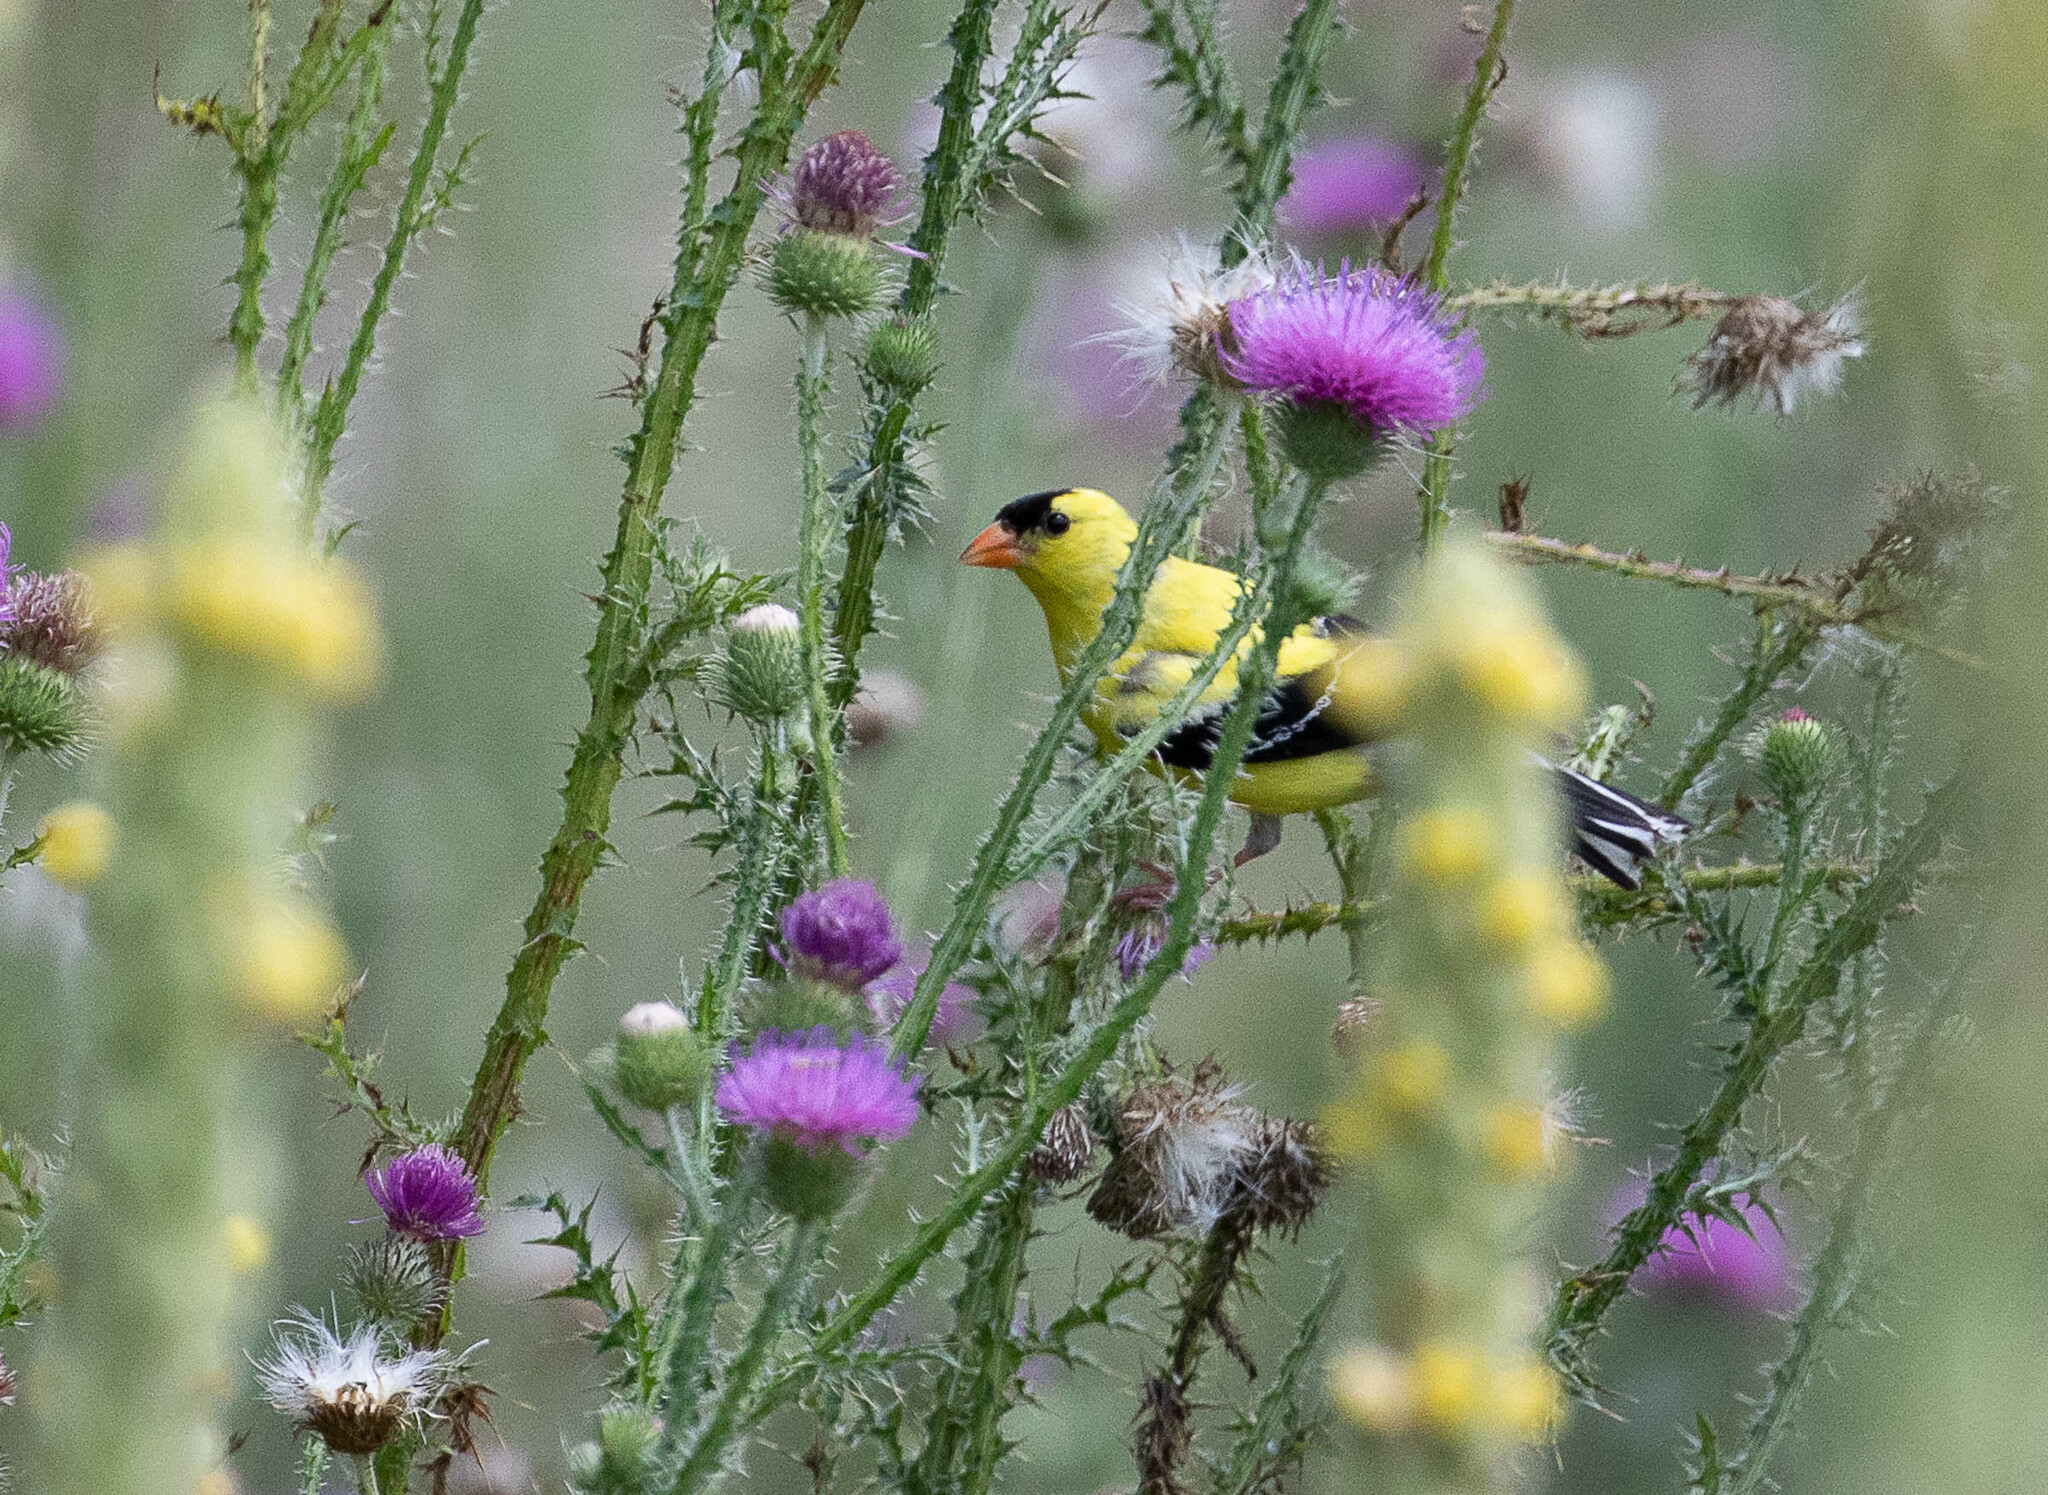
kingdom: Animalia
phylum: Chordata
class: Aves
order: Passeriformes
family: Fringillidae
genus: Spinus
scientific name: Spinus tristis
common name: American goldfinch
